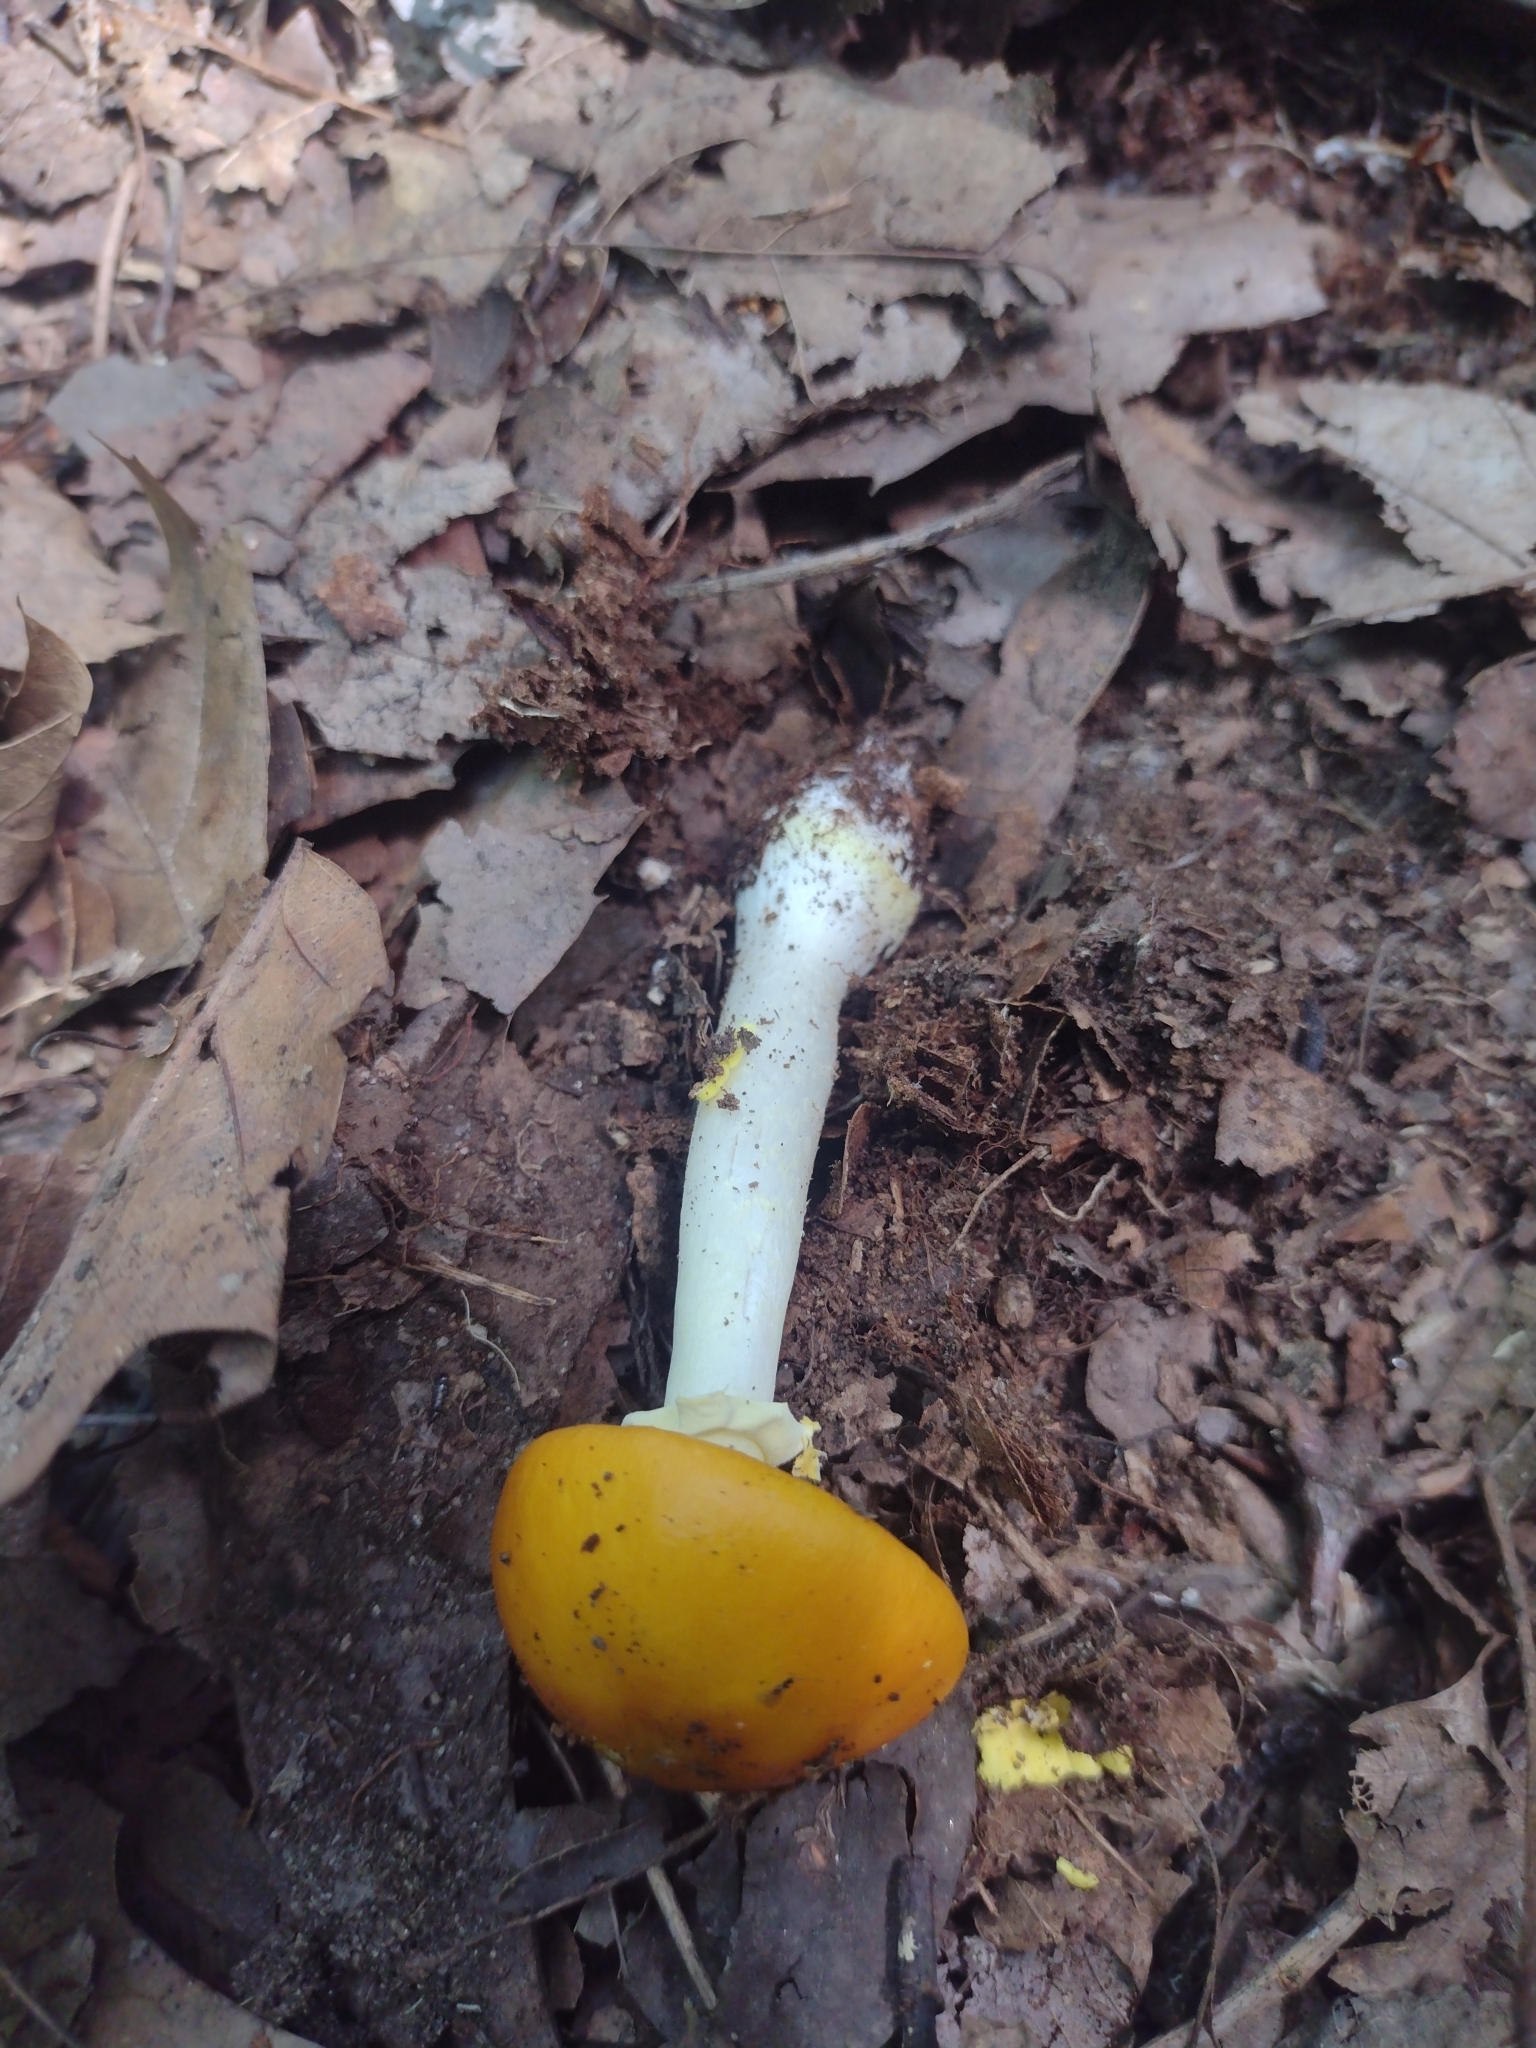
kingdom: Fungi
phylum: Basidiomycota
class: Agaricomycetes
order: Agaricales
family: Amanitaceae
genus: Amanita
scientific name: Amanita elongata
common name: Peck's yellow dust amanita
